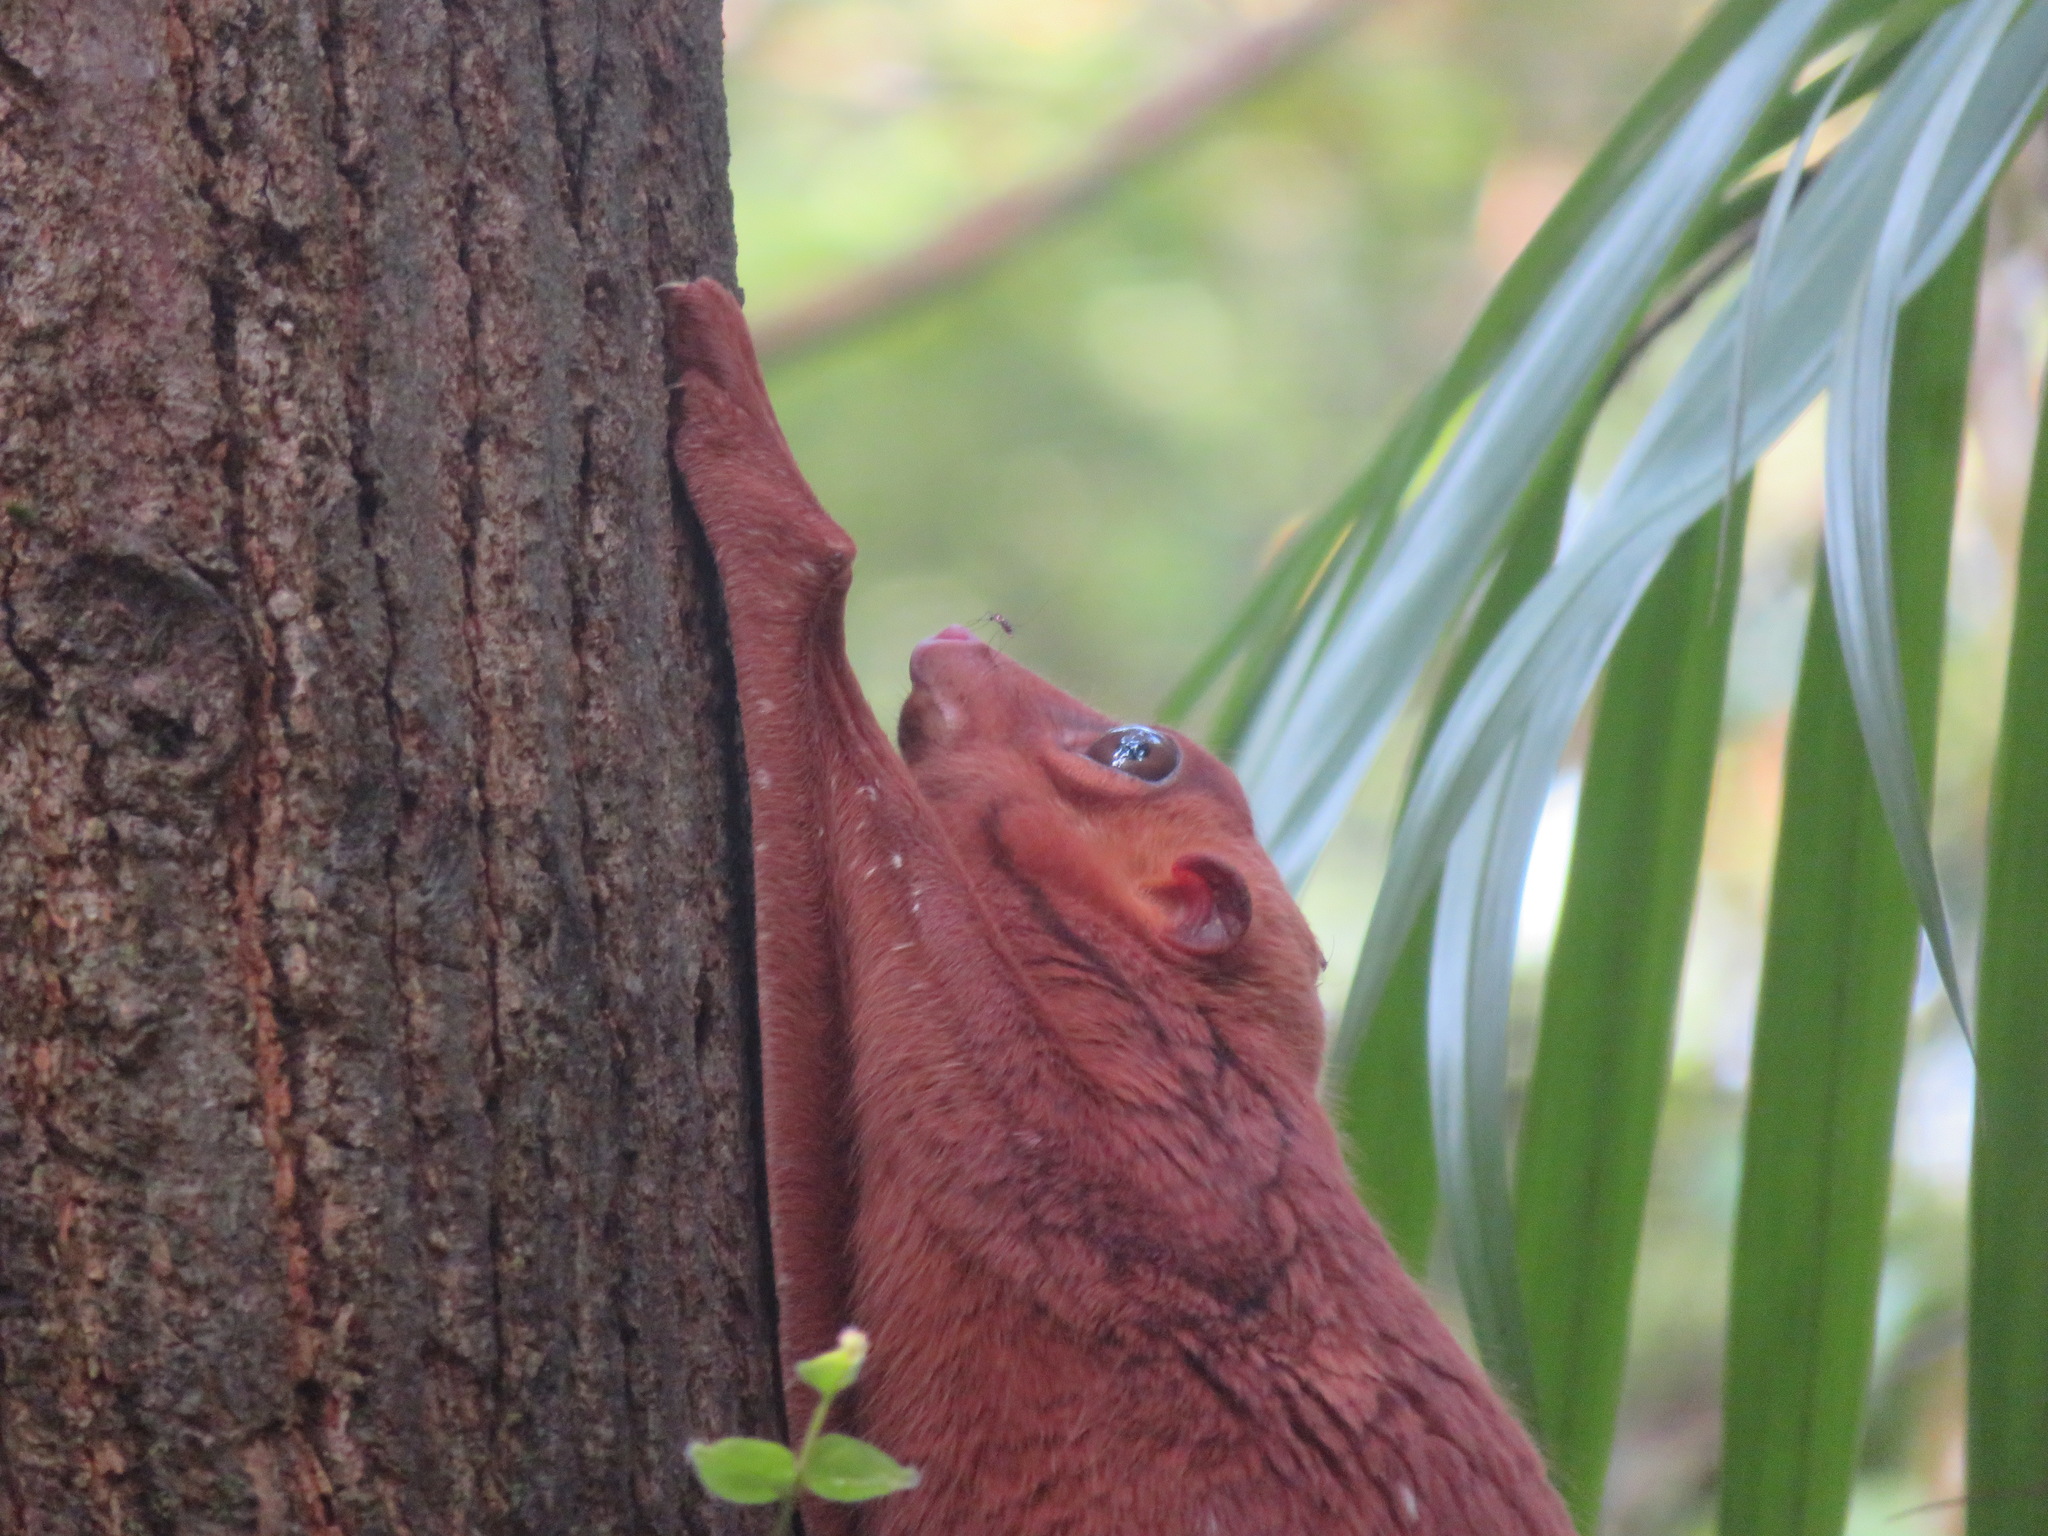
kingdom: Animalia
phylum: Chordata
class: Mammalia
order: Dermoptera
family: Cynocephalidae
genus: Galeopterus
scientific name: Galeopterus variegatus
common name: Sunda flying lemur
